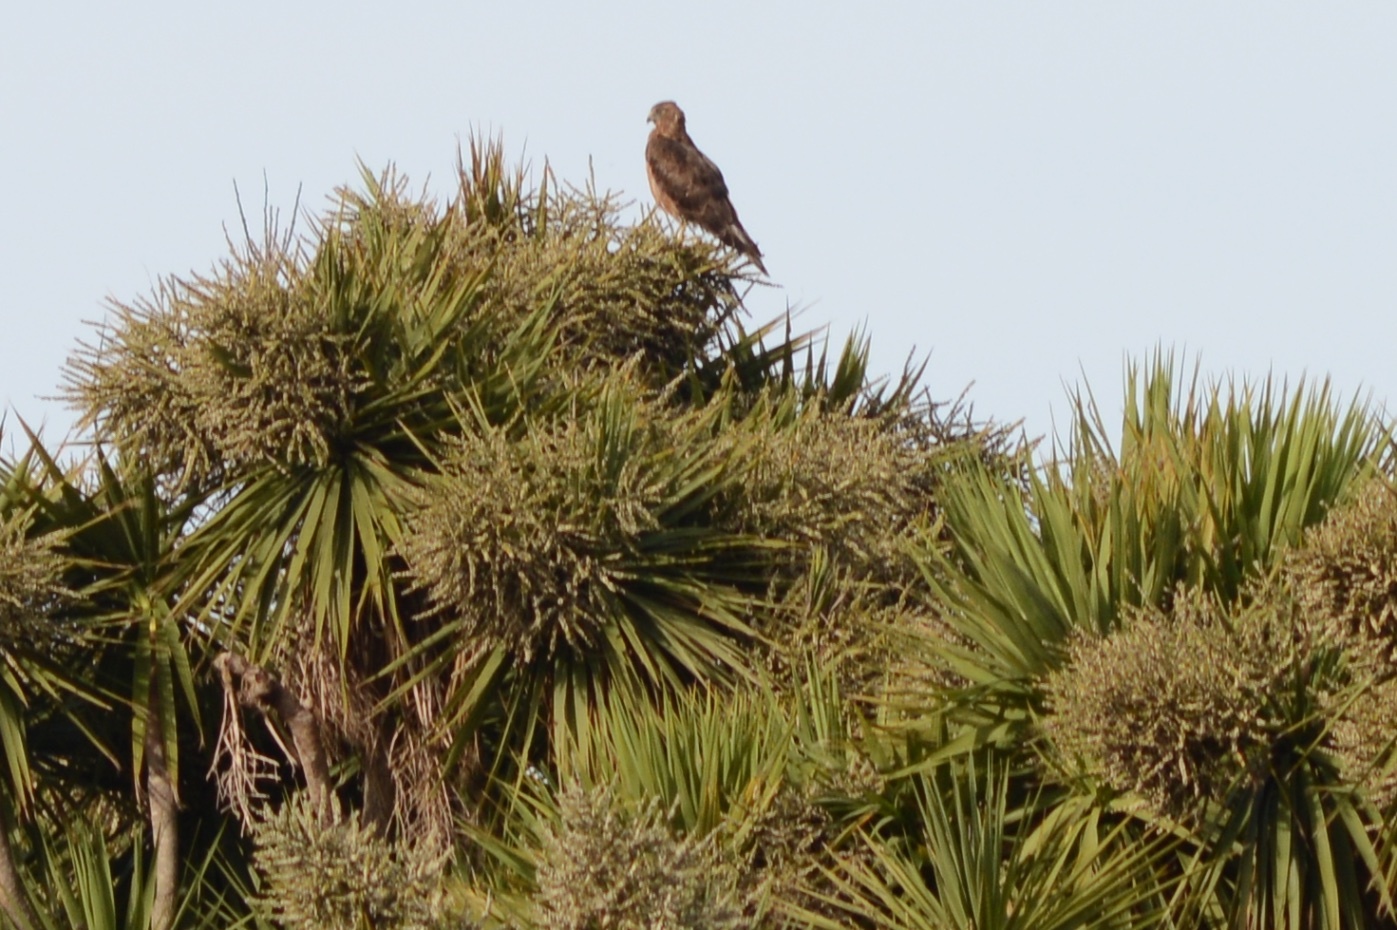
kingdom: Animalia
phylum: Chordata
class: Aves
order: Accipitriformes
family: Accipitridae
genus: Circus
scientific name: Circus approximans
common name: Swamp harrier
